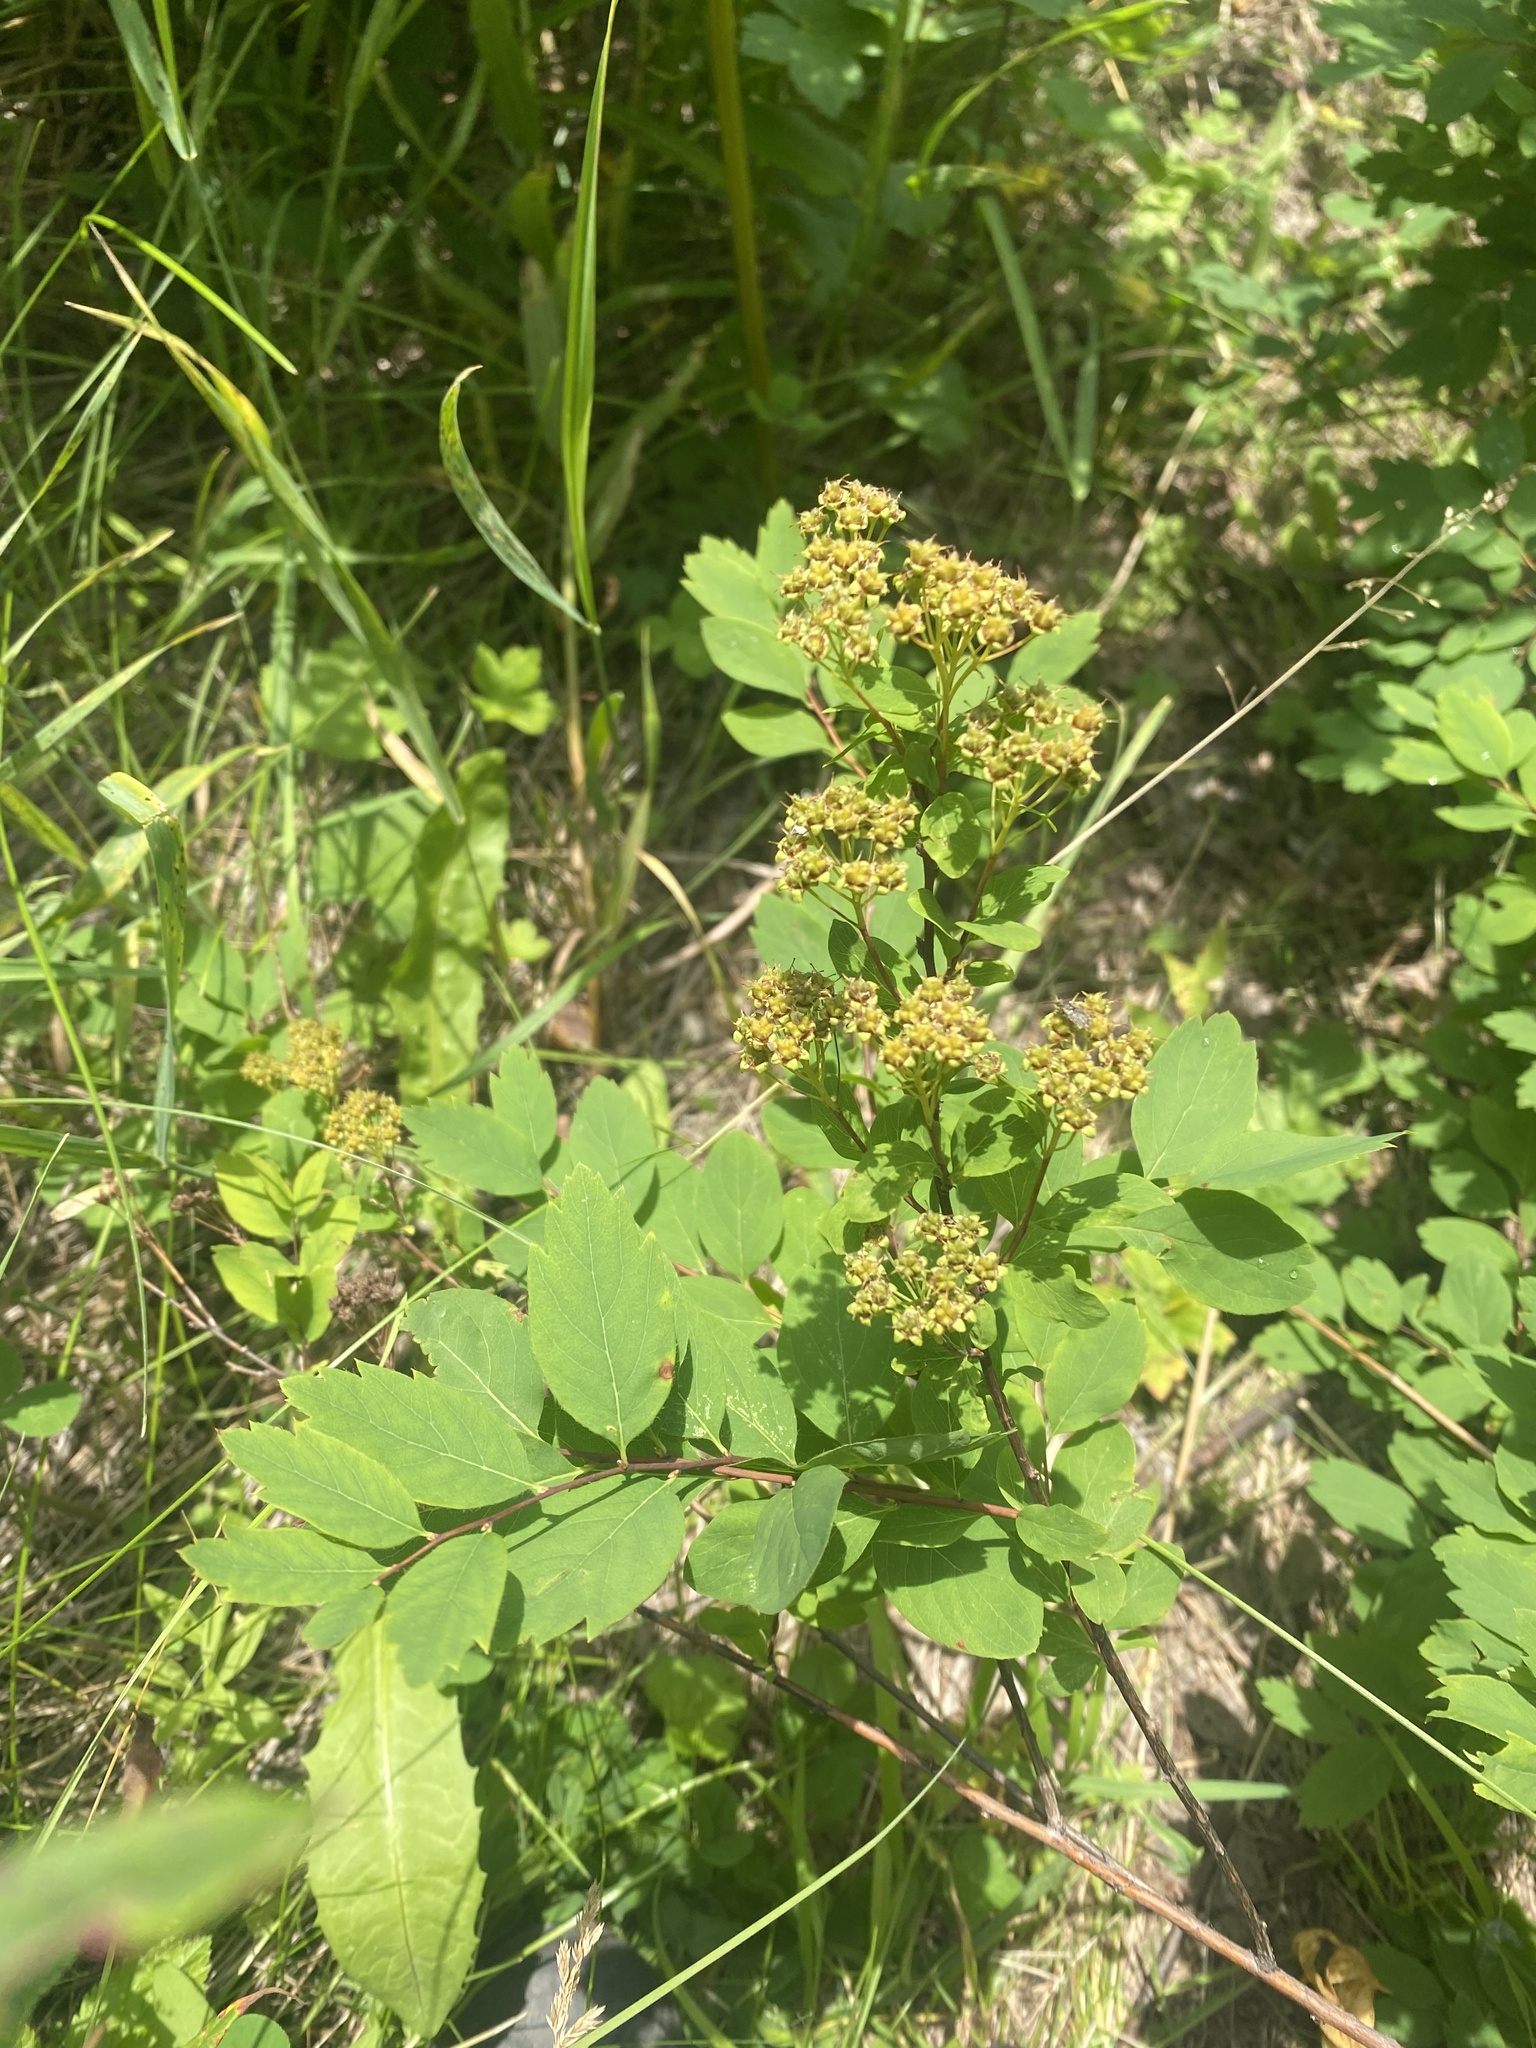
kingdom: Plantae
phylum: Tracheophyta
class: Magnoliopsida
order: Rosales
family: Rosaceae
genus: Spiraea
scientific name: Spiraea media
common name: Russian spiraea
